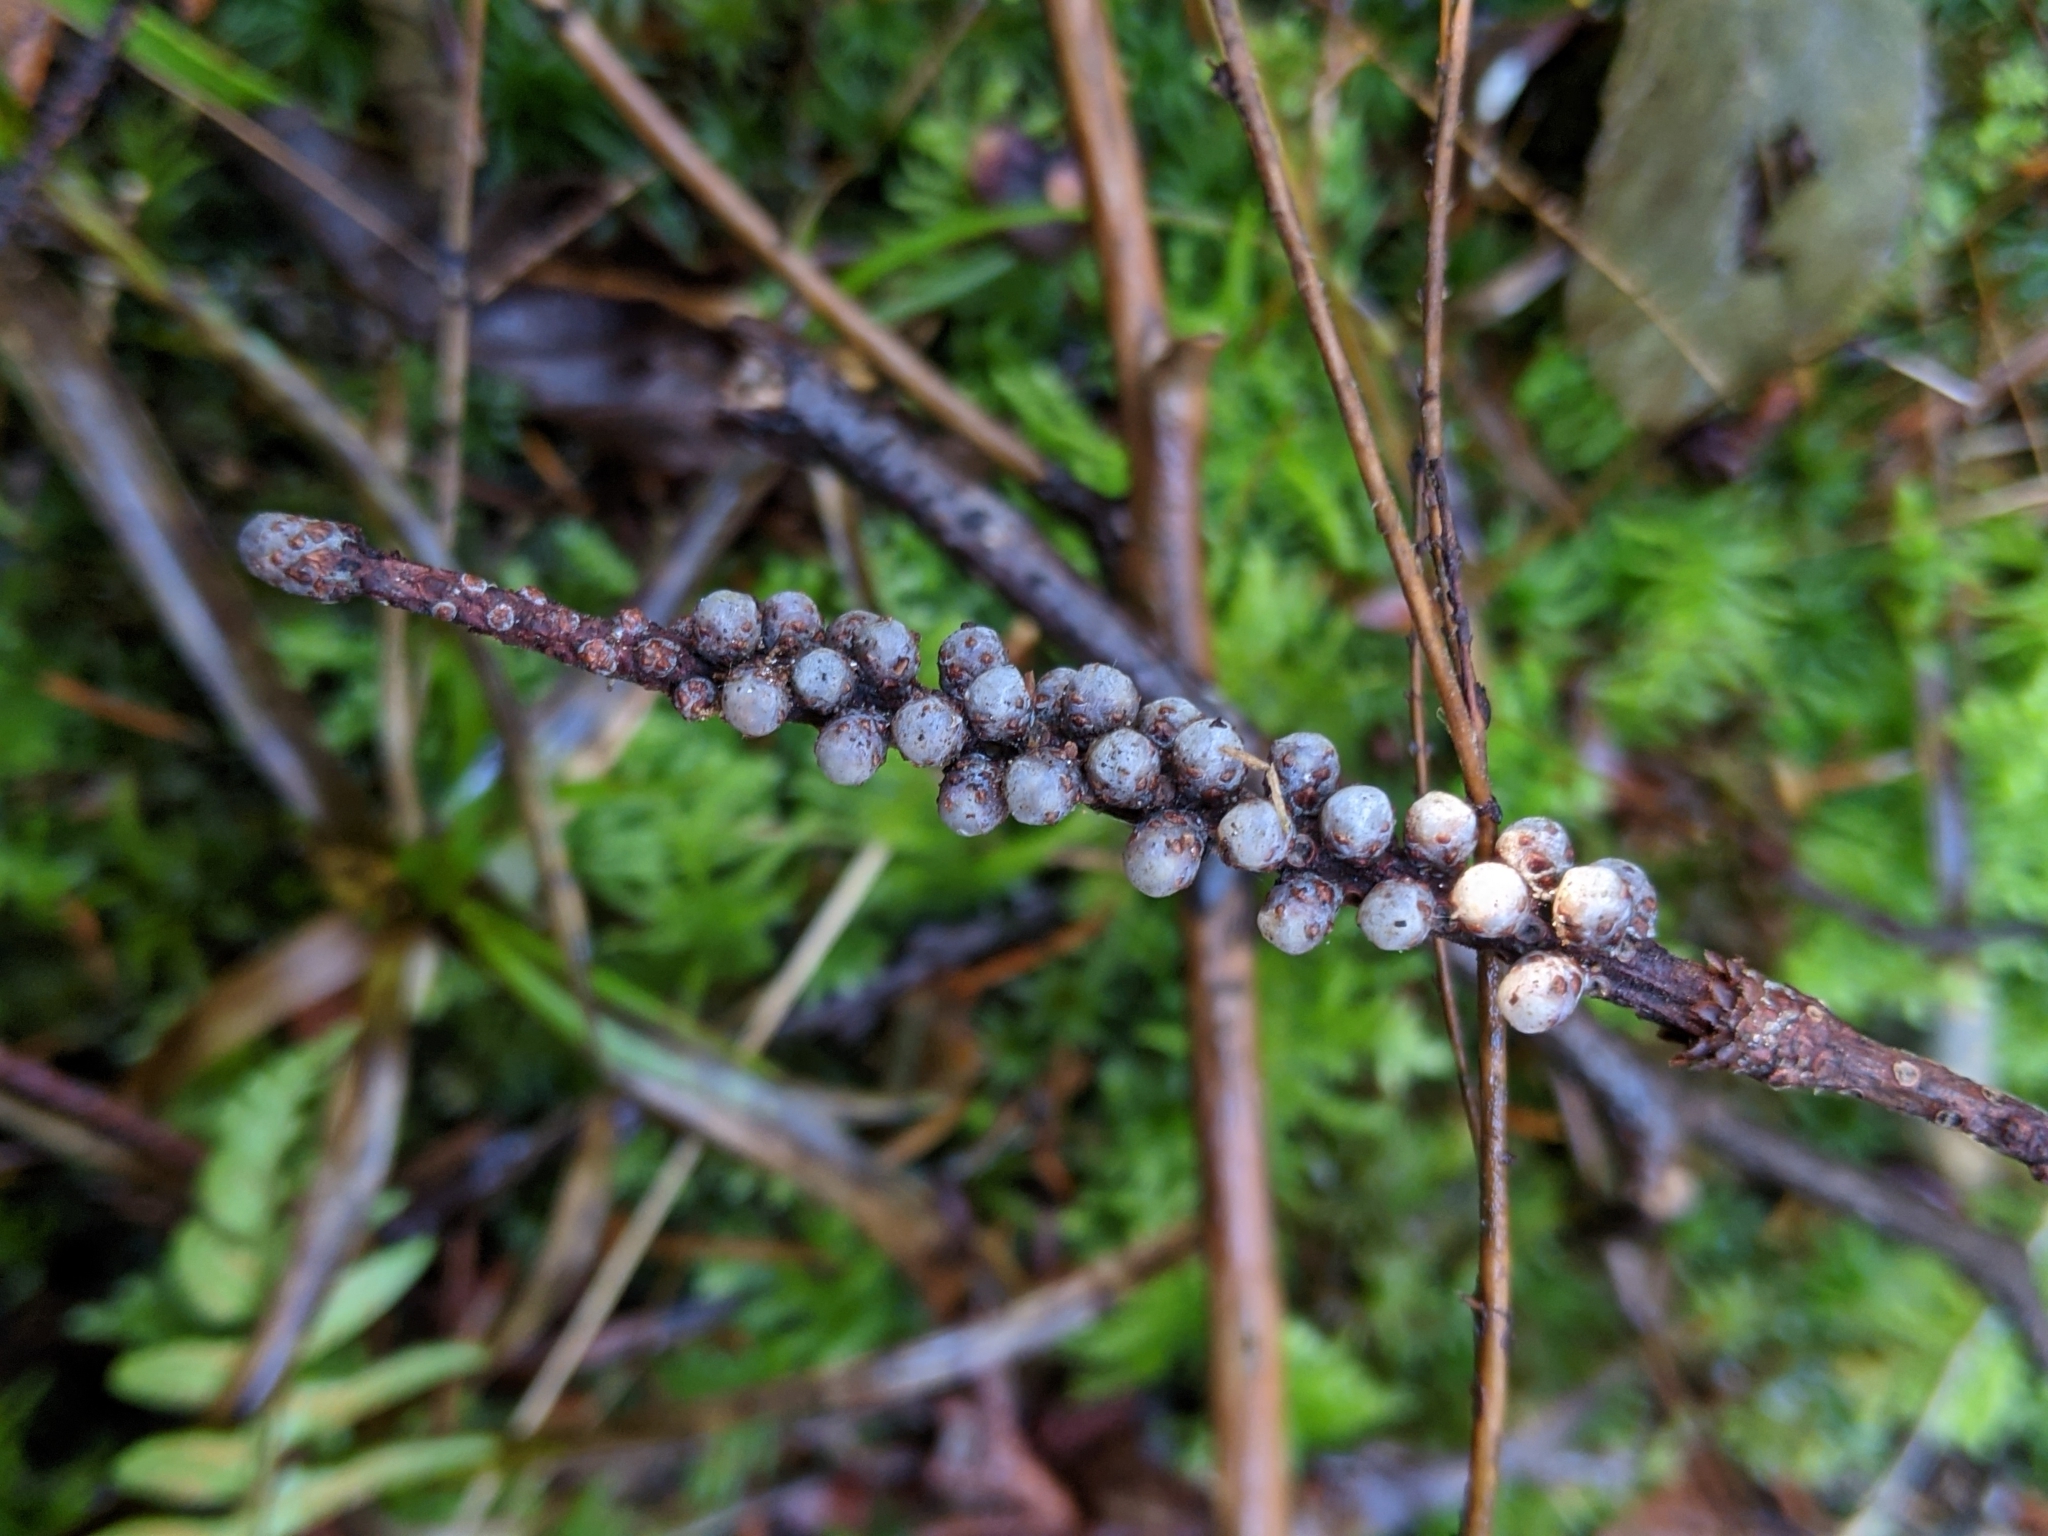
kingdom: Plantae
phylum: Tracheophyta
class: Pinopsida
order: Pinales
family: Pinaceae
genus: Abies
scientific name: Abies grandis
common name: Giant fir
